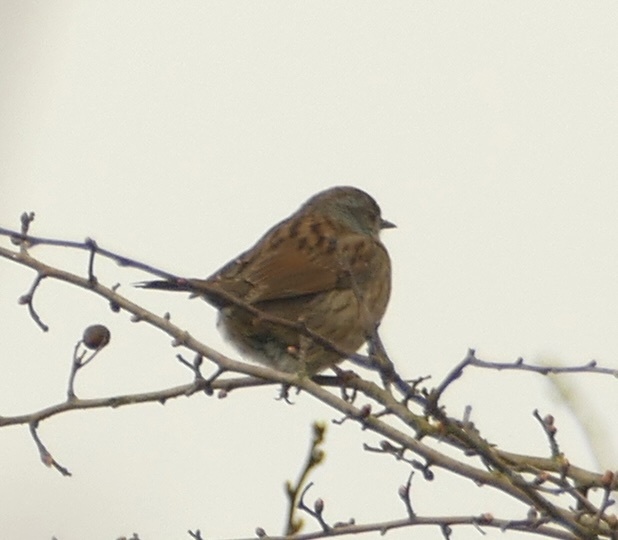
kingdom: Animalia
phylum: Chordata
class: Aves
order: Passeriformes
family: Prunellidae
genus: Prunella
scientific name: Prunella modularis
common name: Dunnock
